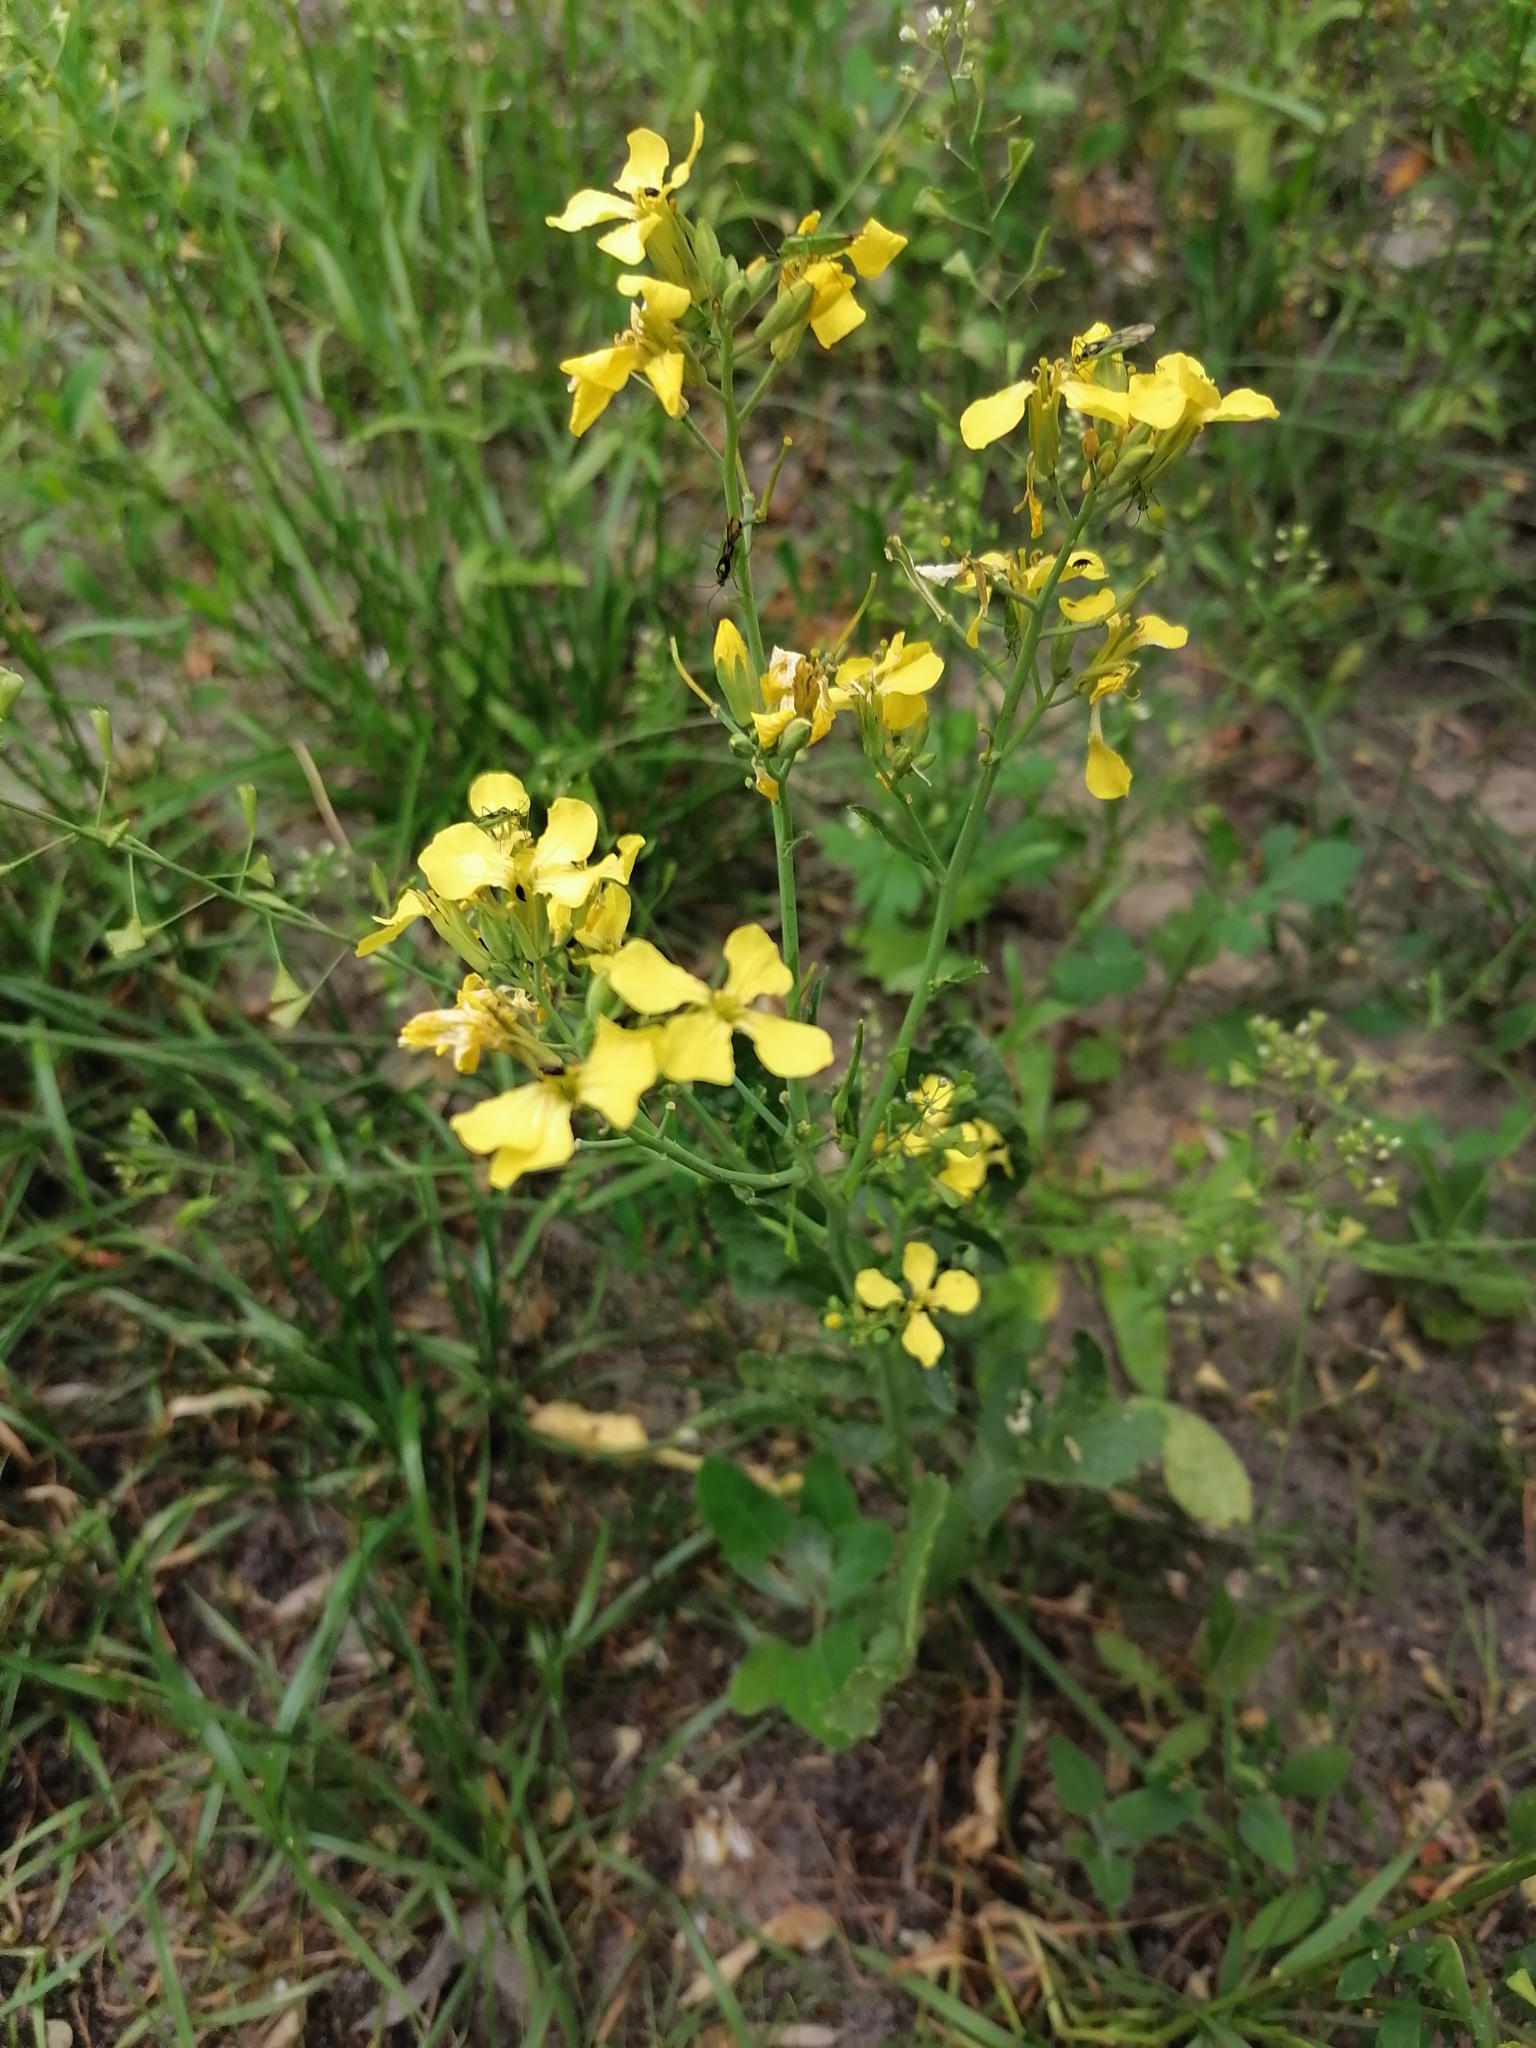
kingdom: Plantae
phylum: Tracheophyta
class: Magnoliopsida
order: Brassicales
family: Brassicaceae
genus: Raphanus
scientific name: Raphanus raphanistrum
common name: Wild radish
